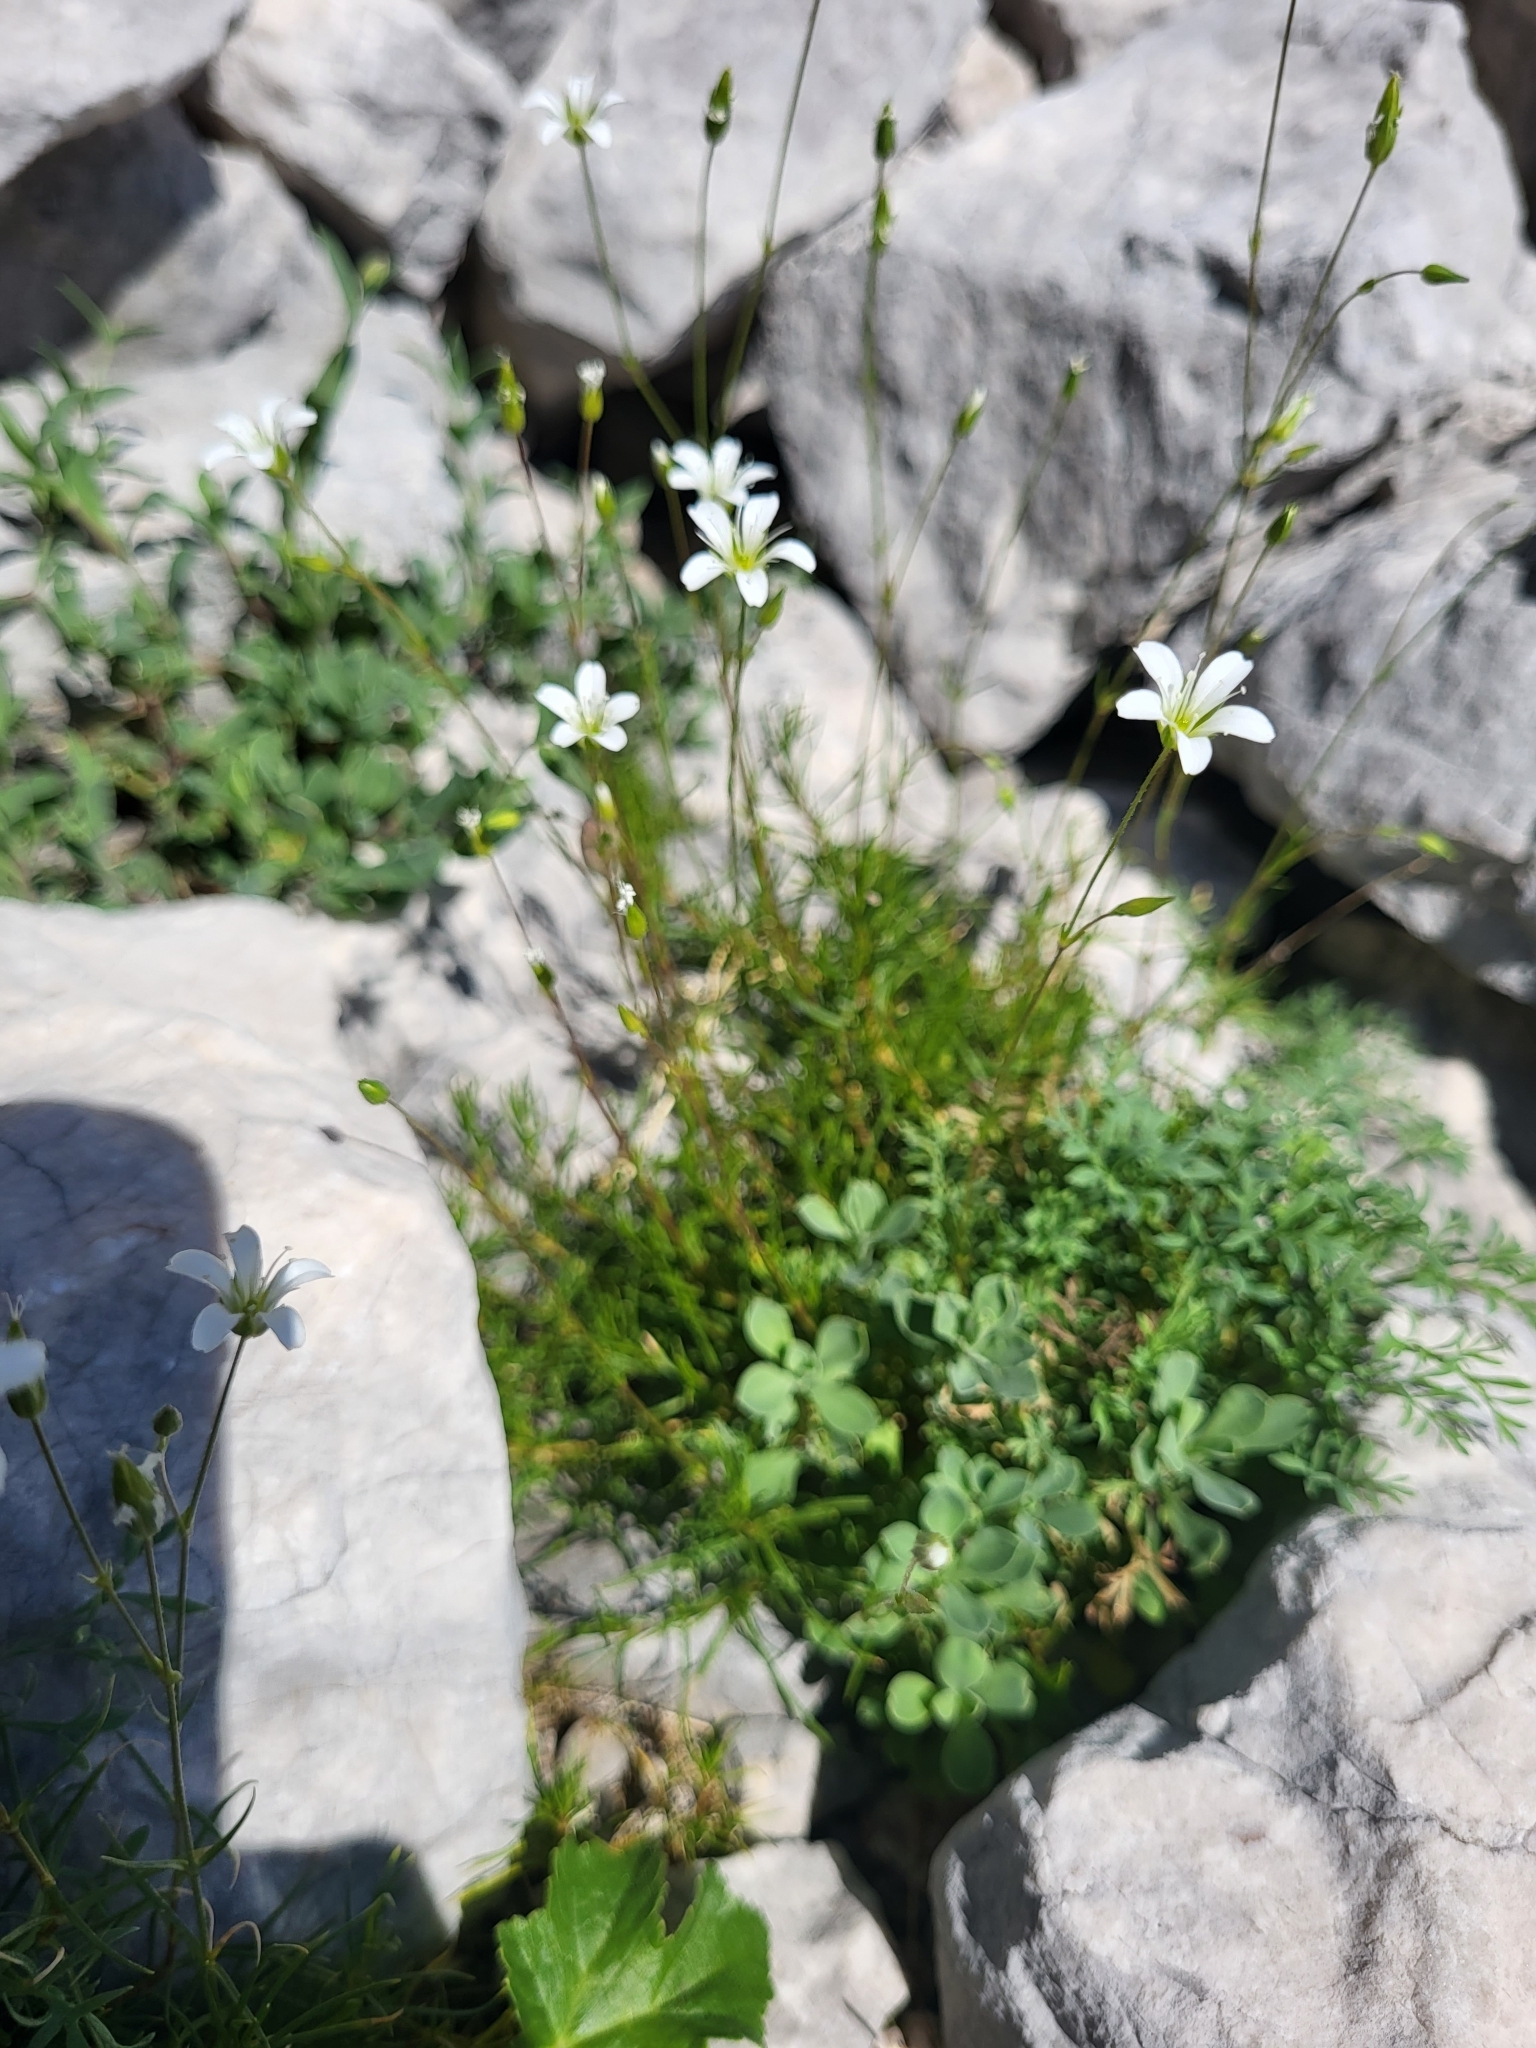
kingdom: Plantae
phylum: Tracheophyta
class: Magnoliopsida
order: Caryophyllales
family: Caryophyllaceae
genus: Sabulina
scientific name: Sabulina austriaca
